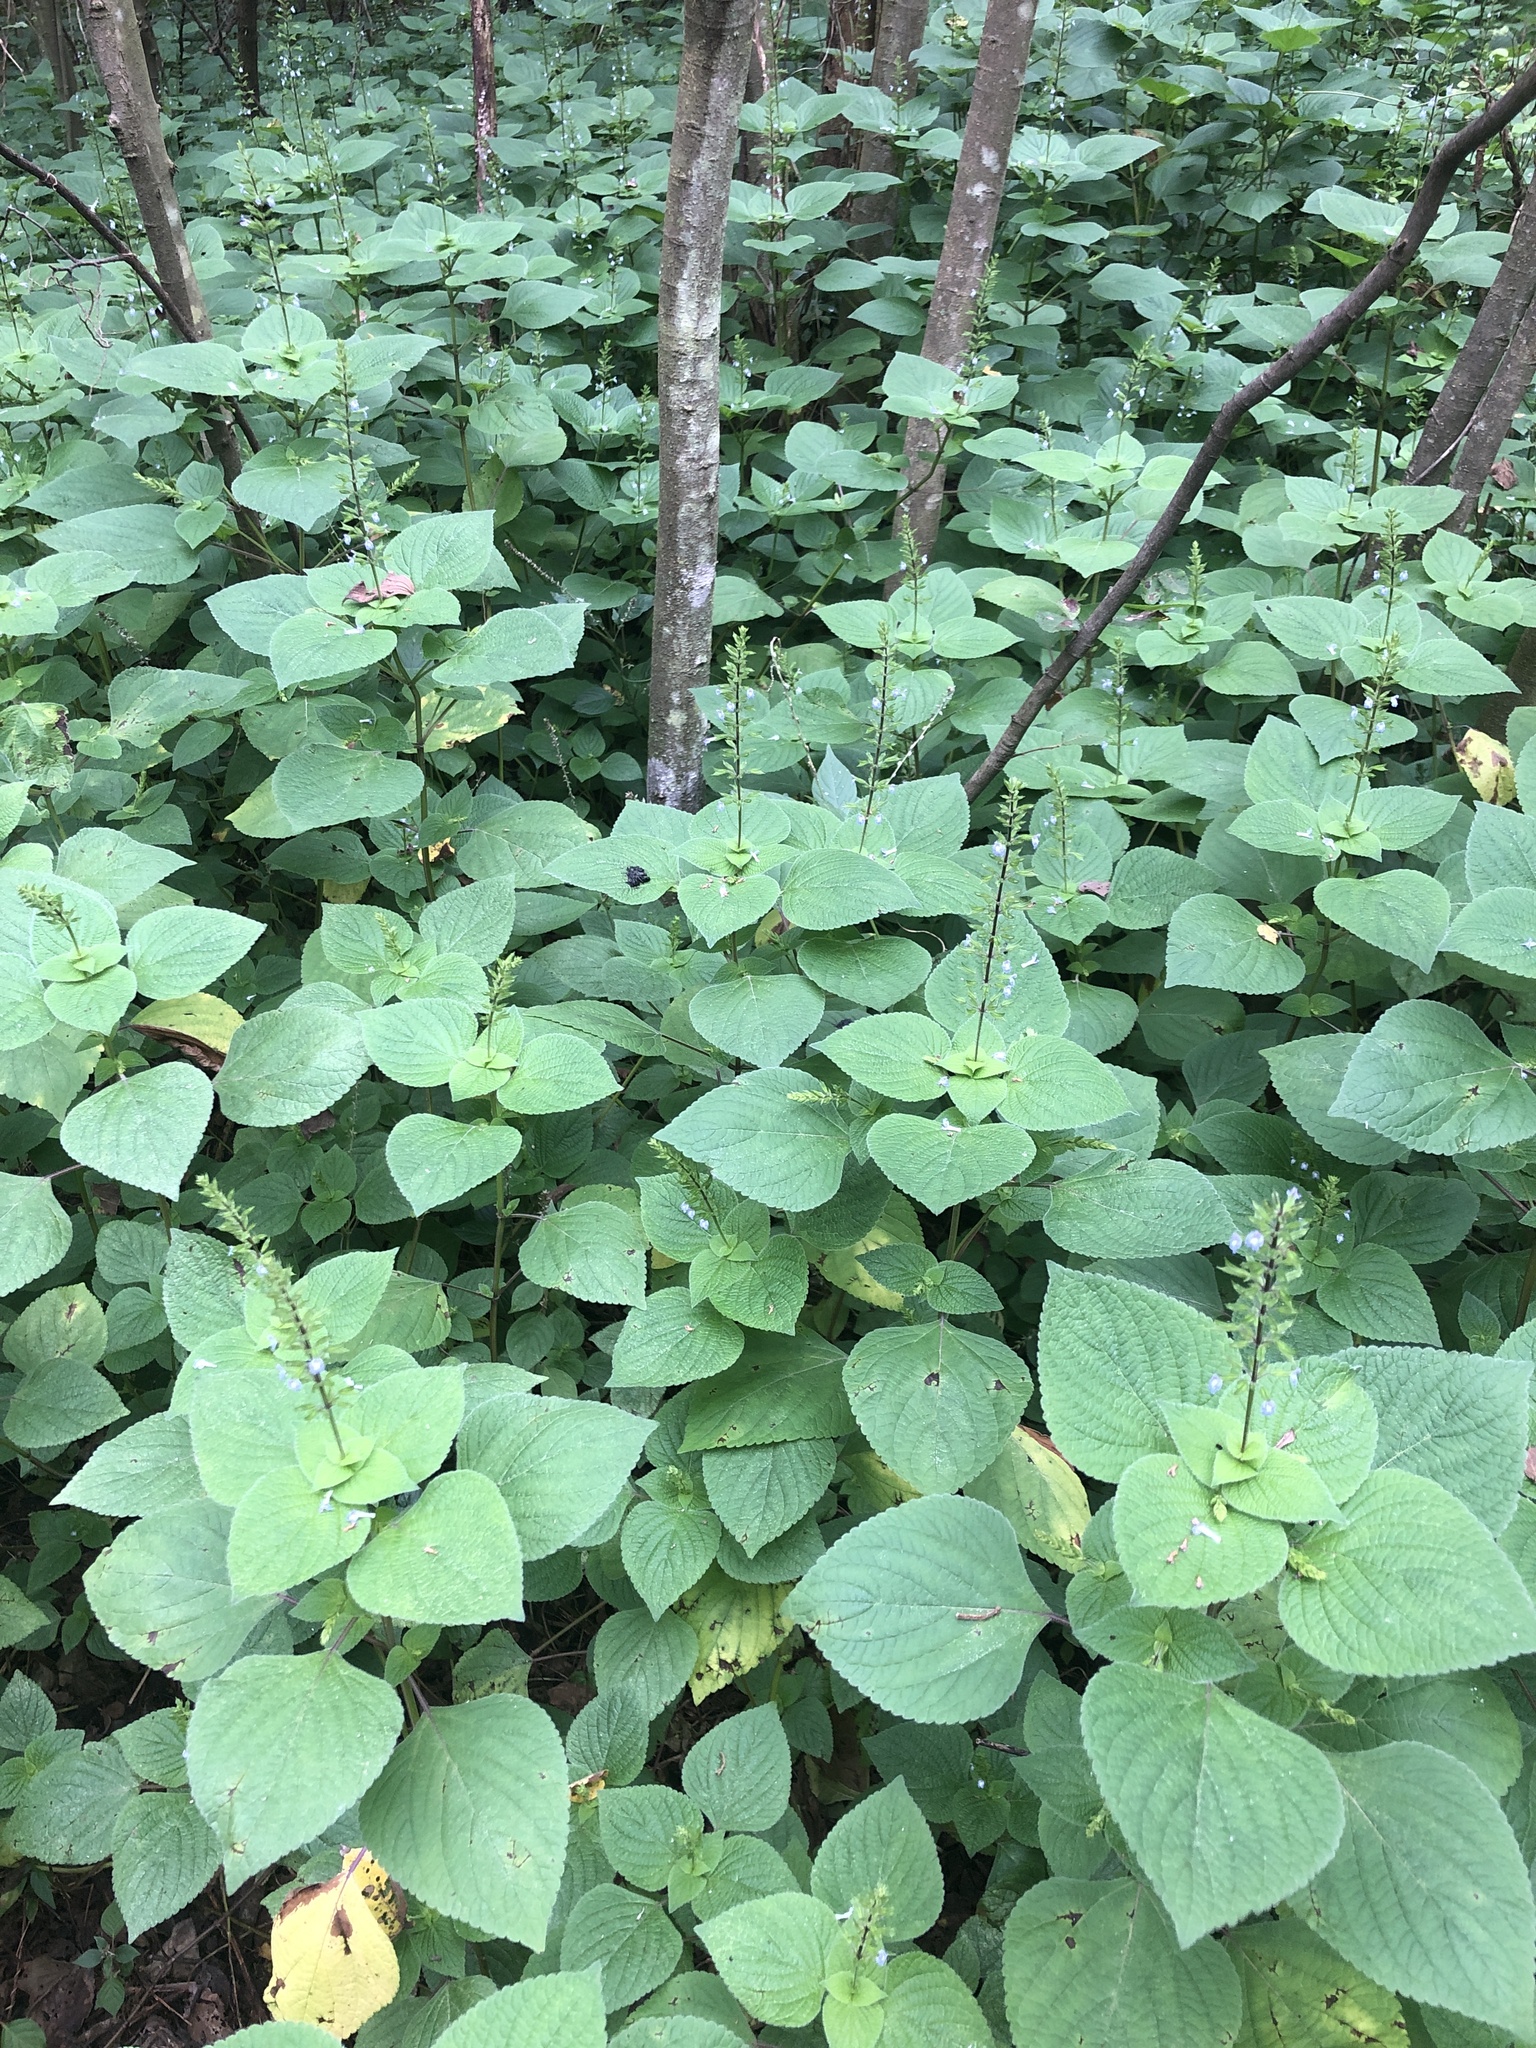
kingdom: Plantae
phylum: Tracheophyta
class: Magnoliopsida
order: Lamiales
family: Lamiaceae
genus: Salvia
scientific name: Salvia tiliifolia
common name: Lindenleaf sage
